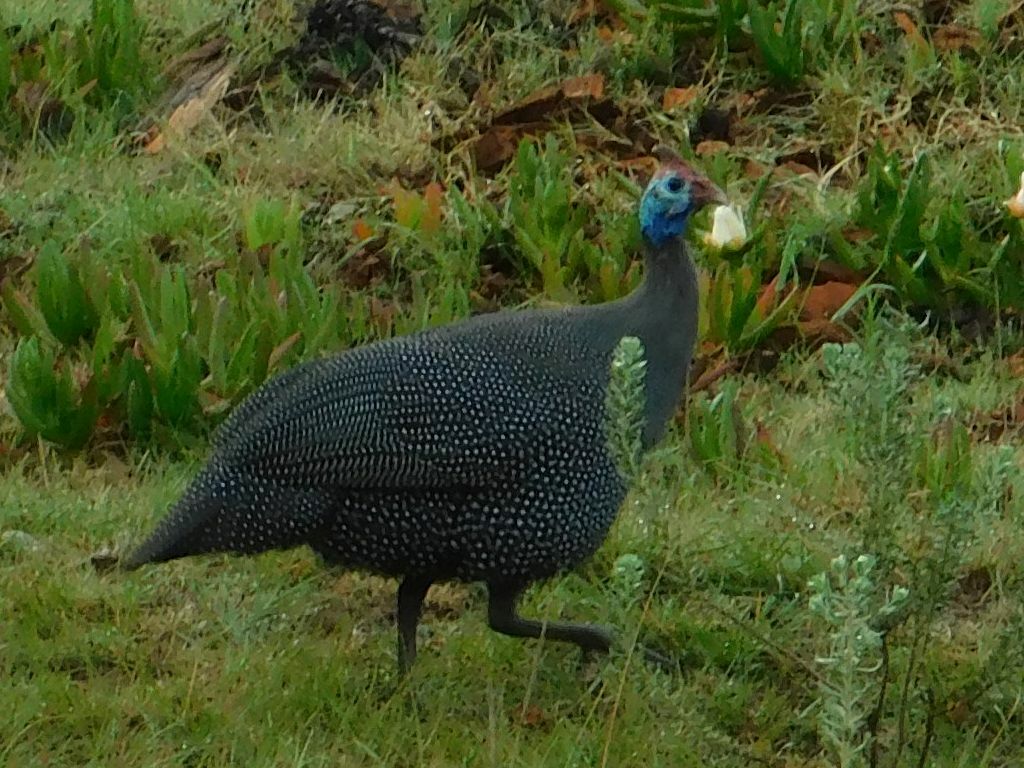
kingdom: Animalia
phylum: Chordata
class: Aves
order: Galliformes
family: Numididae
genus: Numida
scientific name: Numida meleagris
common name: Helmeted guineafowl
